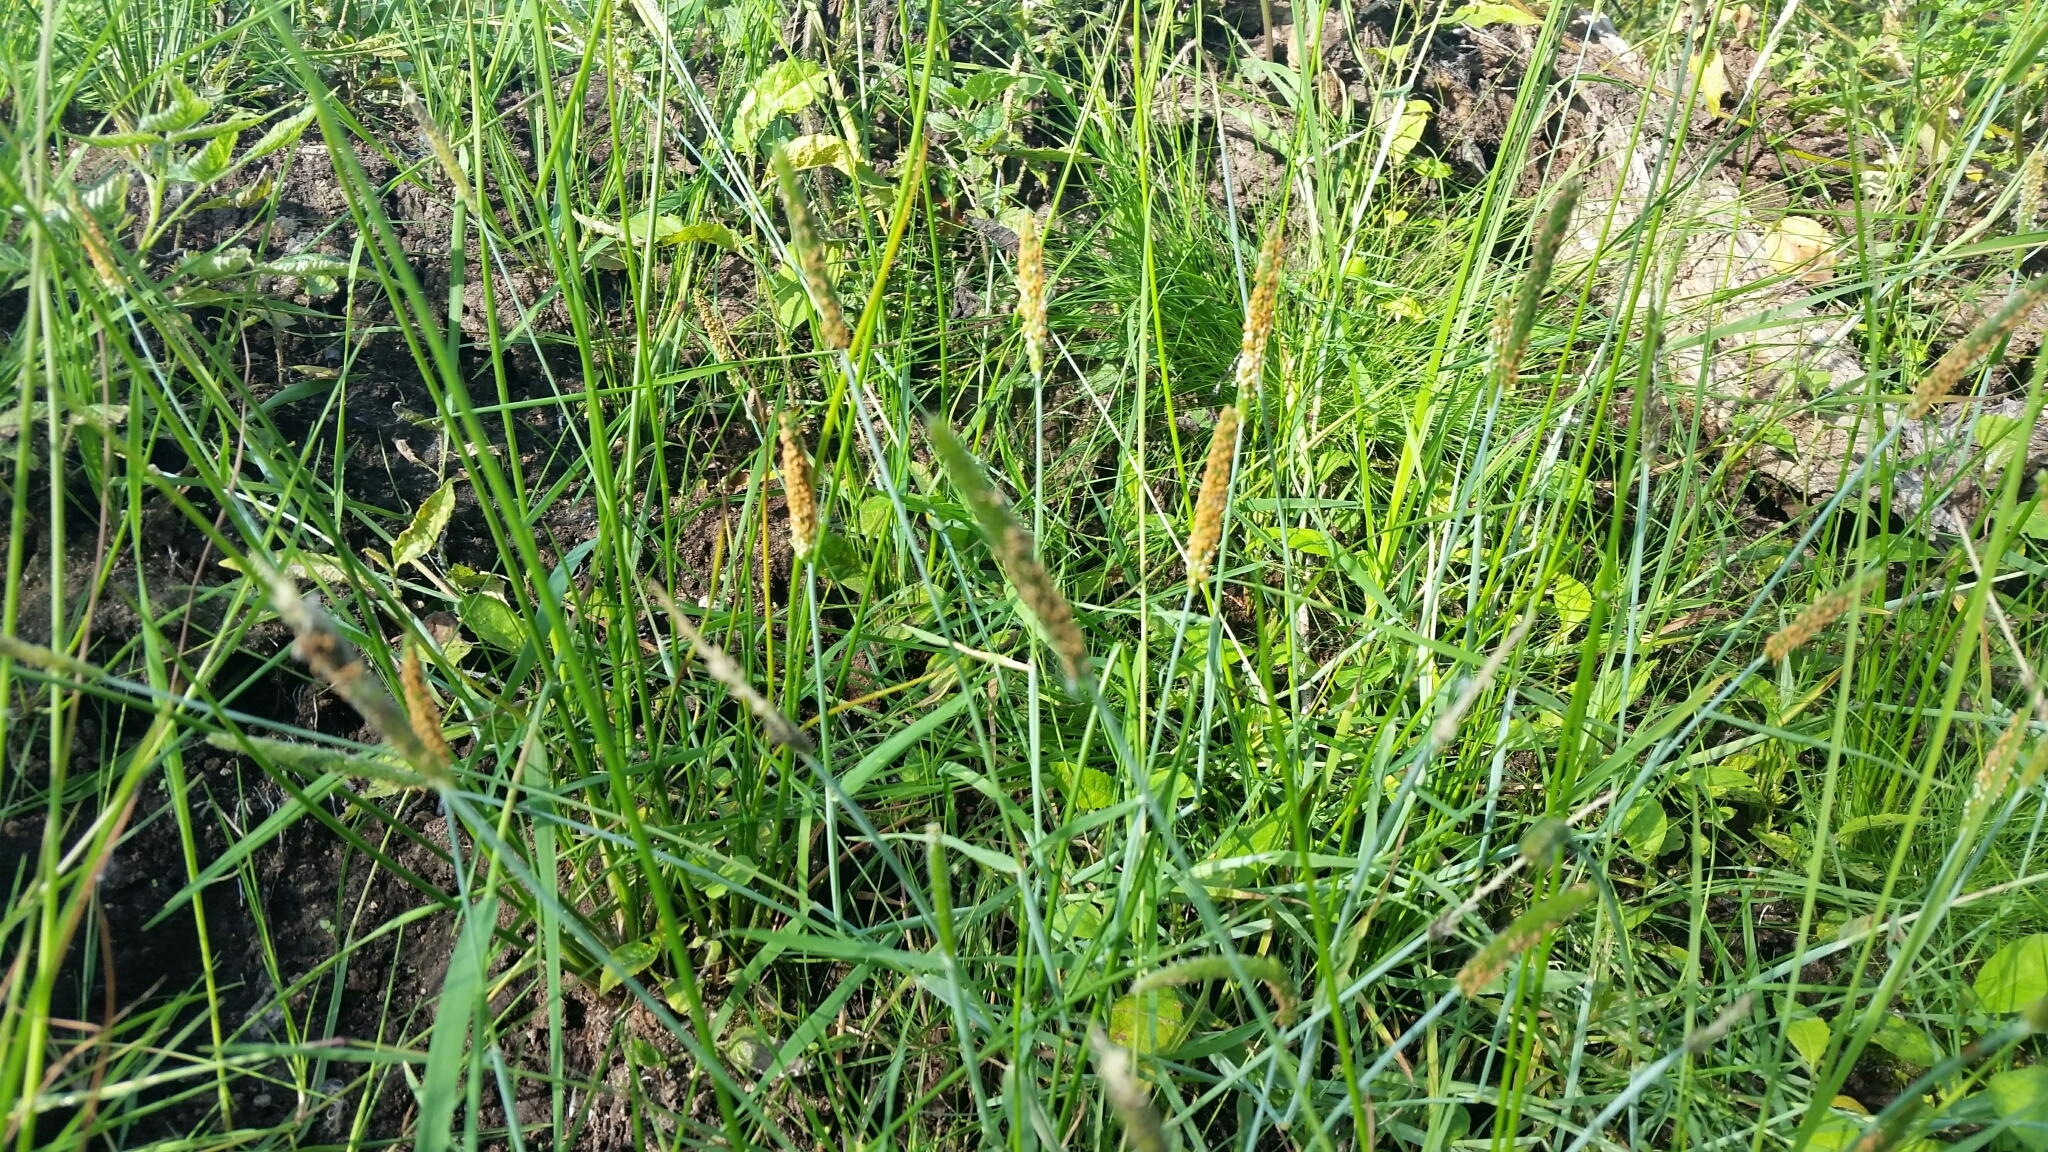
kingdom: Plantae
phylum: Tracheophyta
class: Liliopsida
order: Poales
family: Poaceae
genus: Alopecurus
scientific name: Alopecurus aequalis
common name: Orange foxtail
